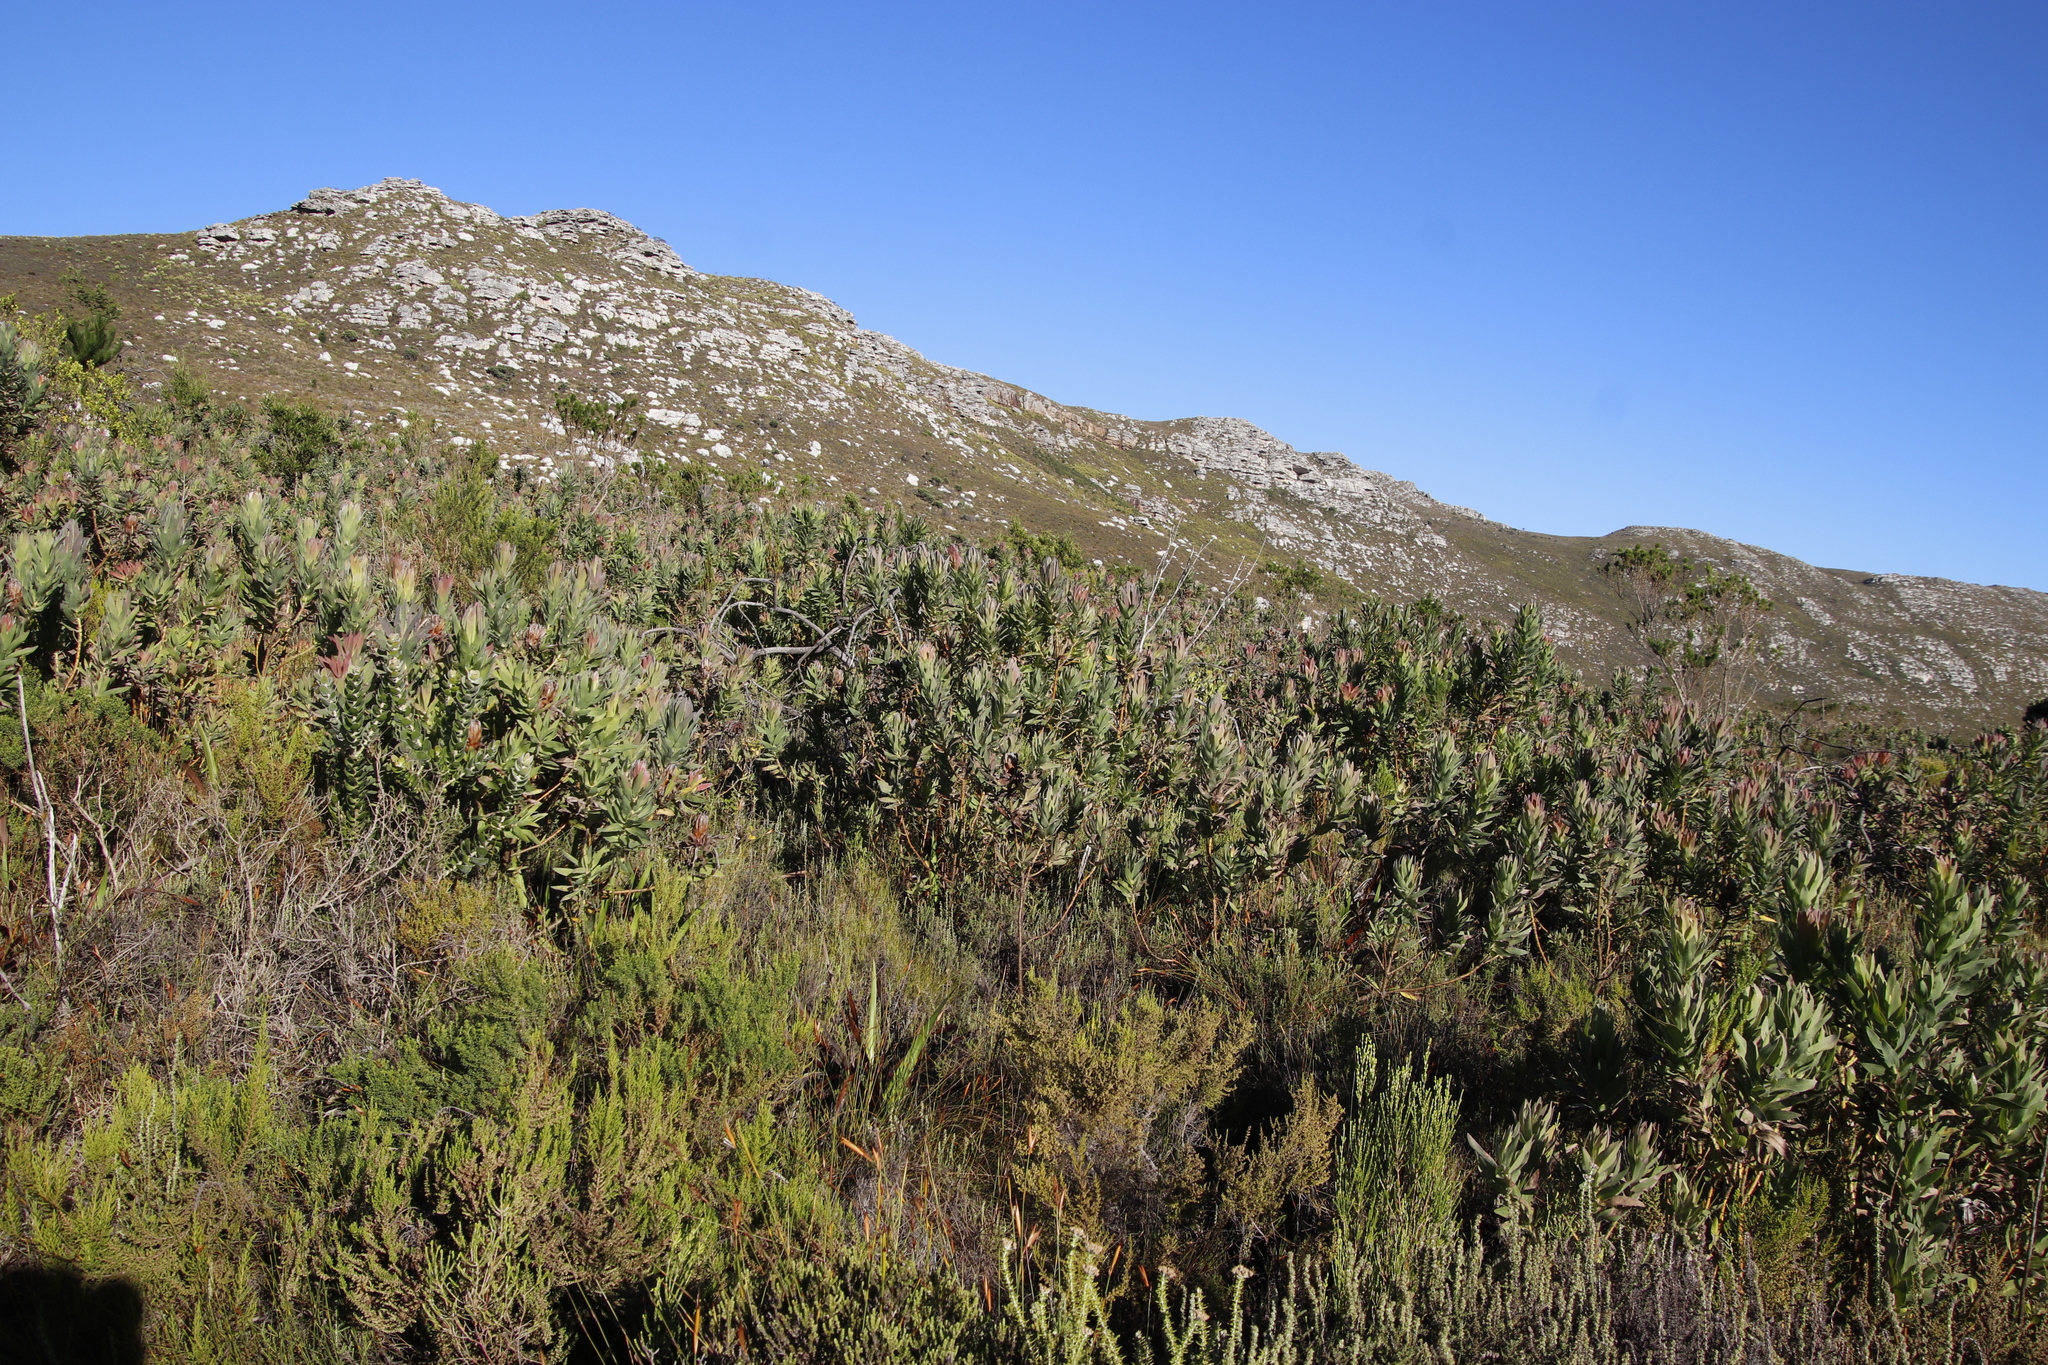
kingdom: Plantae
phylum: Tracheophyta
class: Magnoliopsida
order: Proteales
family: Proteaceae
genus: Protea
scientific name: Protea coronata
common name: Green sugarbush
